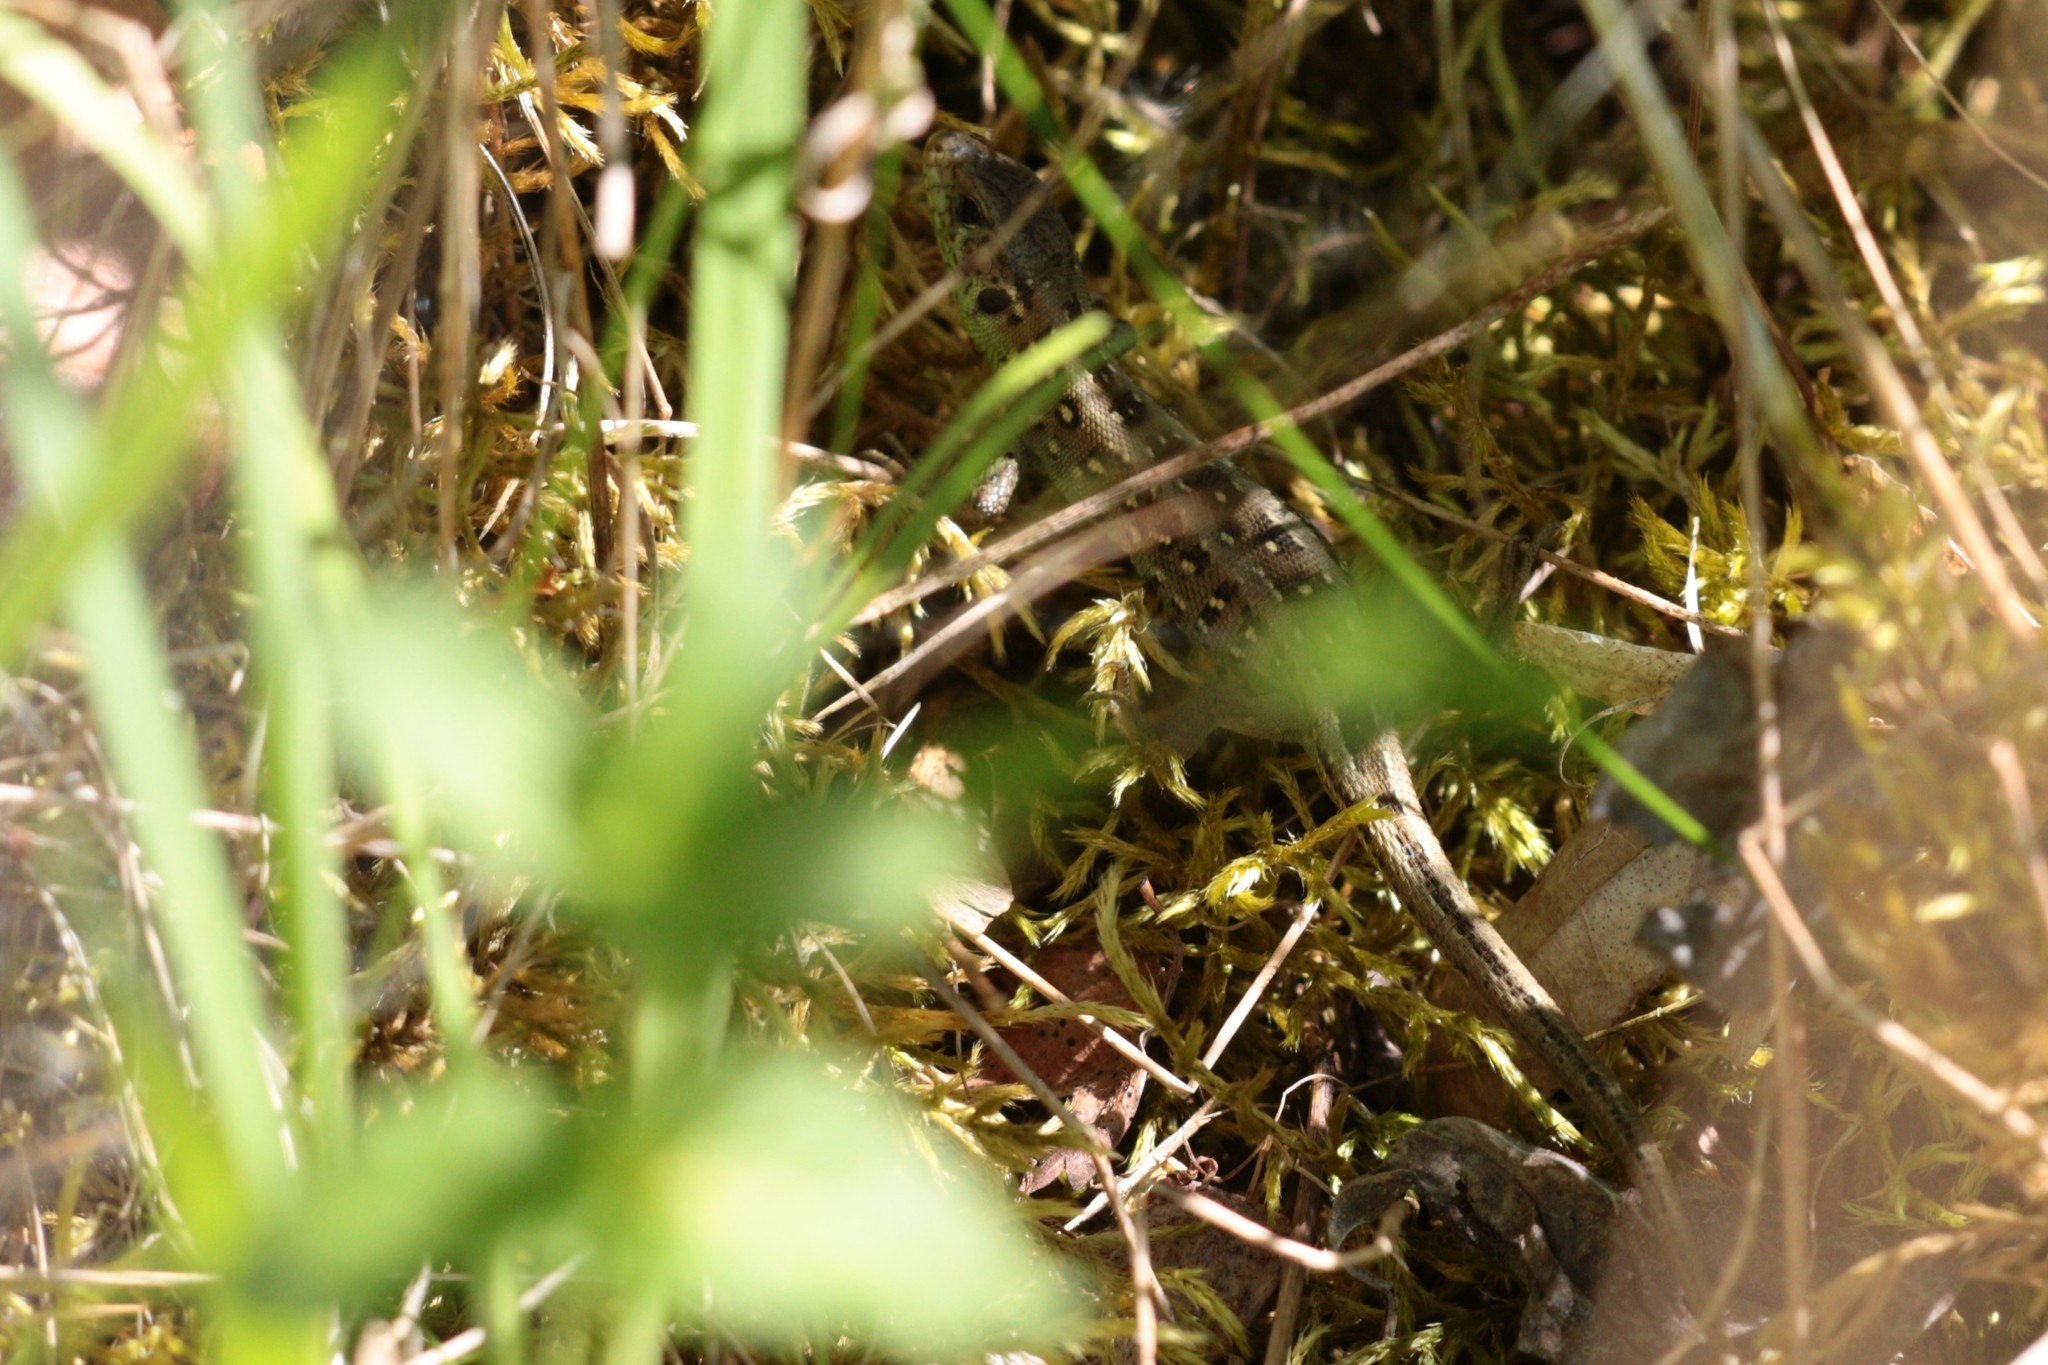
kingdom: Animalia
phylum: Chordata
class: Squamata
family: Lacertidae
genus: Lacerta
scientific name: Lacerta agilis
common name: Sand lizard
